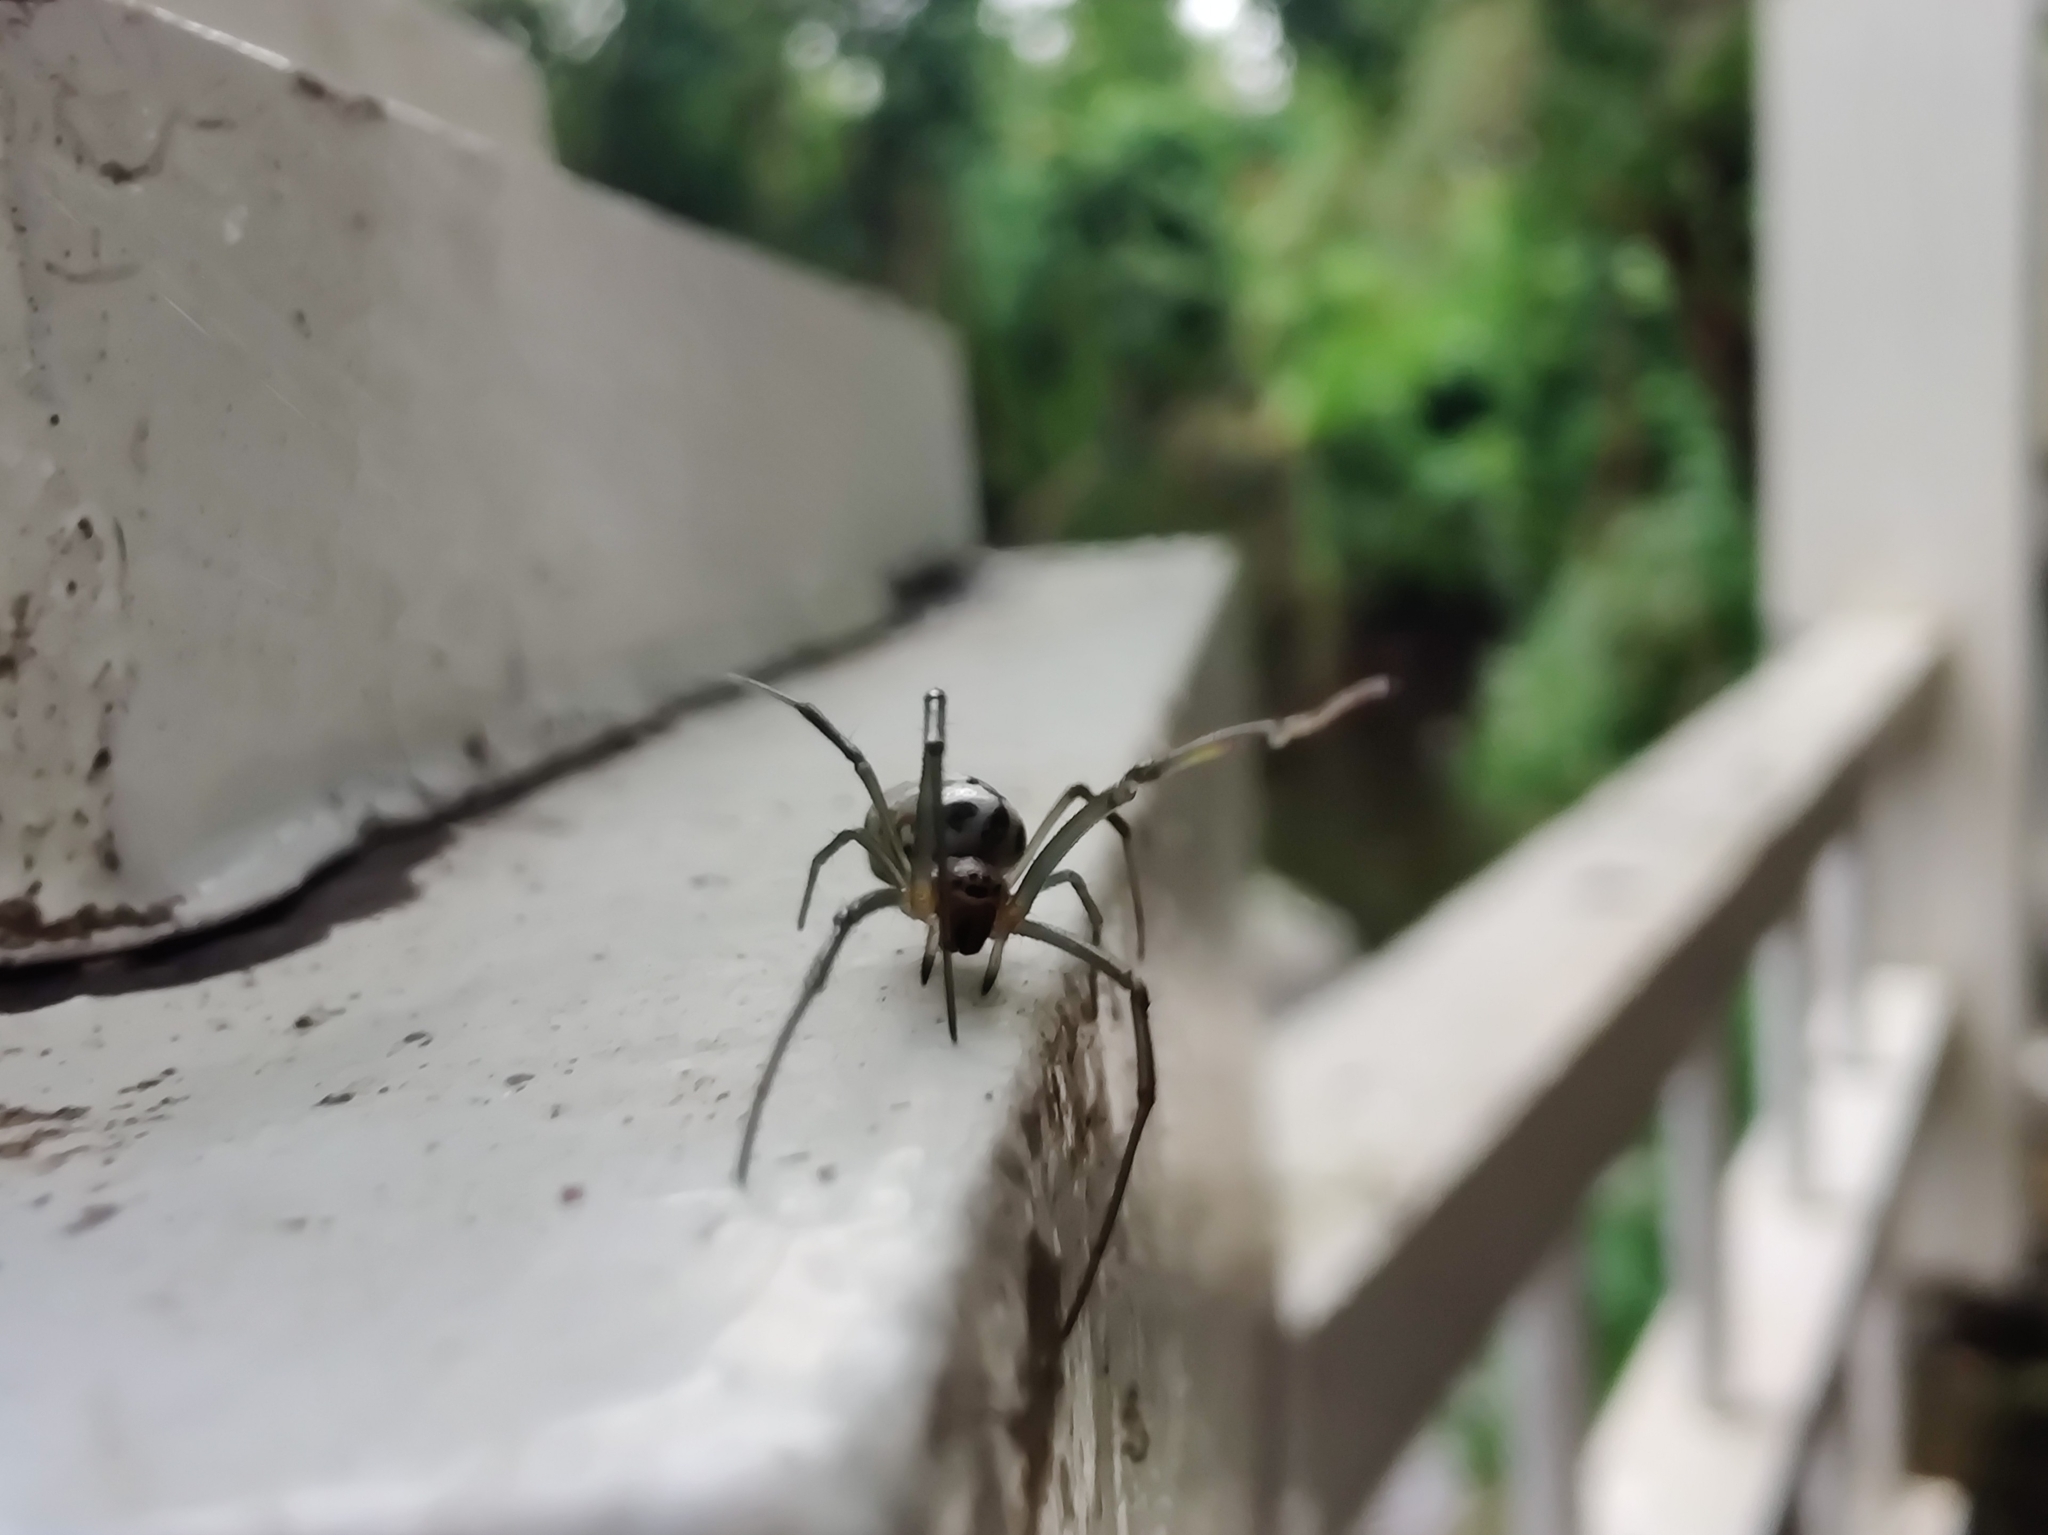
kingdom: Animalia
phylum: Arthropoda
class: Arachnida
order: Araneae
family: Araneidae
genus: Trichonephila
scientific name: Trichonephila inaurata
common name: Red-legged golden orb weaver
